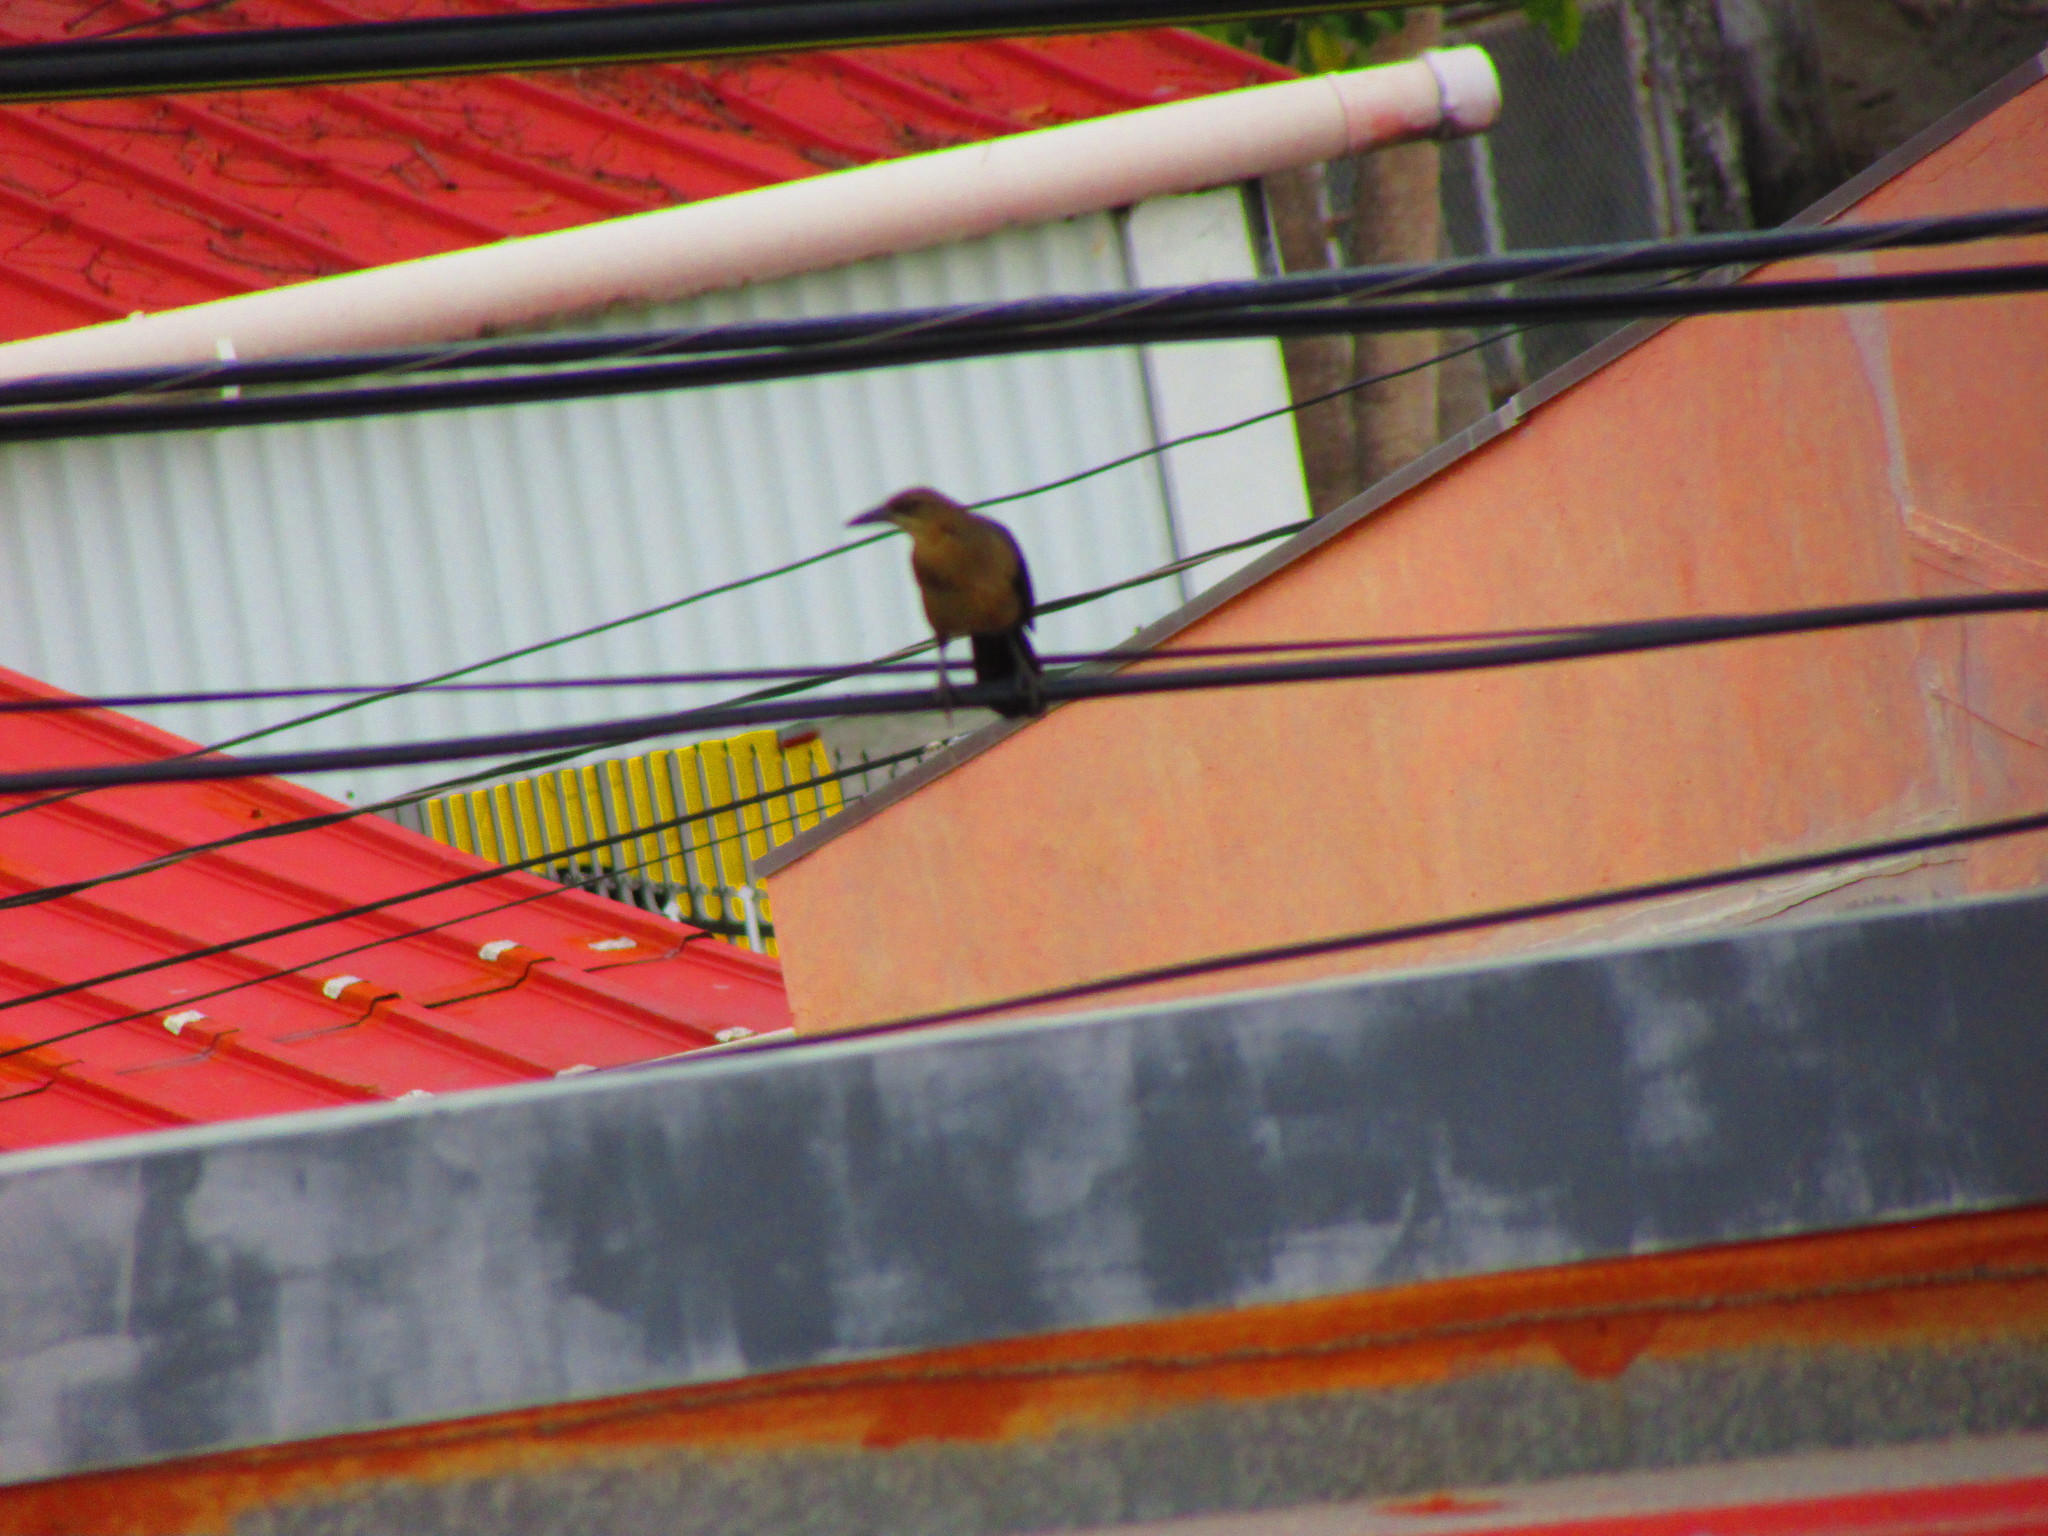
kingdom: Animalia
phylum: Chordata
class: Aves
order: Passeriformes
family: Icteridae
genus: Quiscalus
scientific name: Quiscalus mexicanus
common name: Great-tailed grackle
